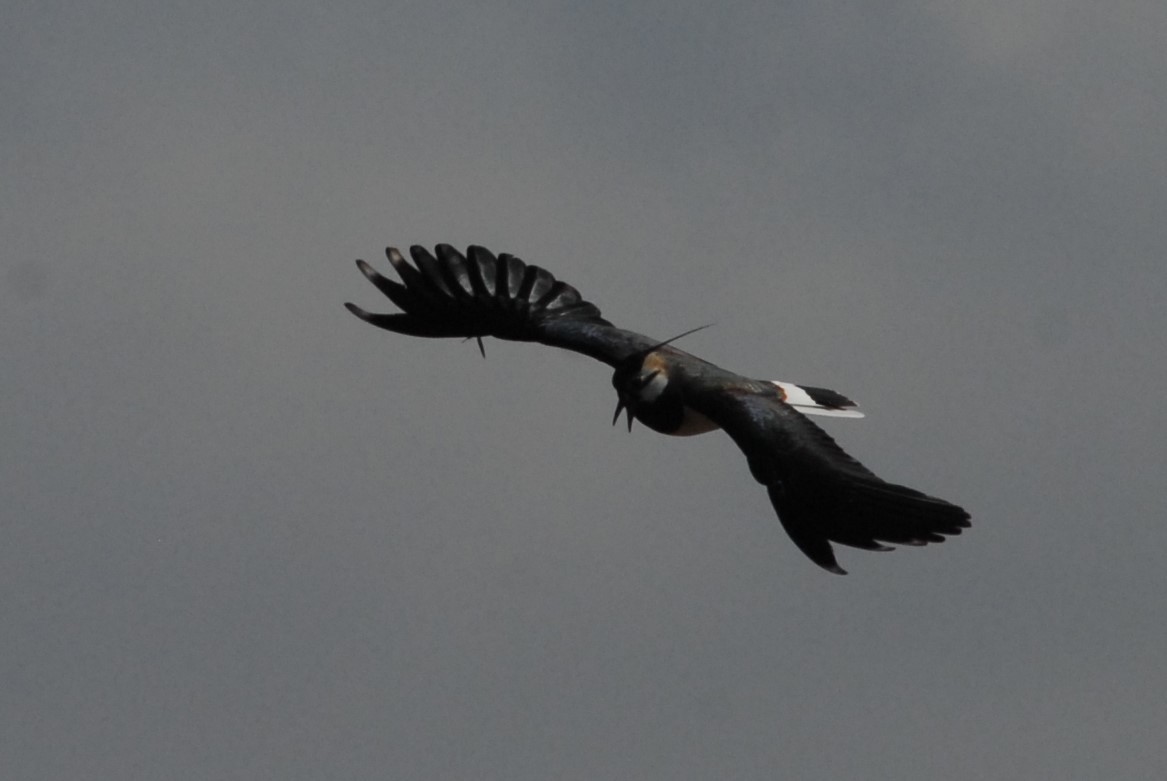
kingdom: Animalia
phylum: Chordata
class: Aves
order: Charadriiformes
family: Charadriidae
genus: Vanellus
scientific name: Vanellus vanellus
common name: Northern lapwing
